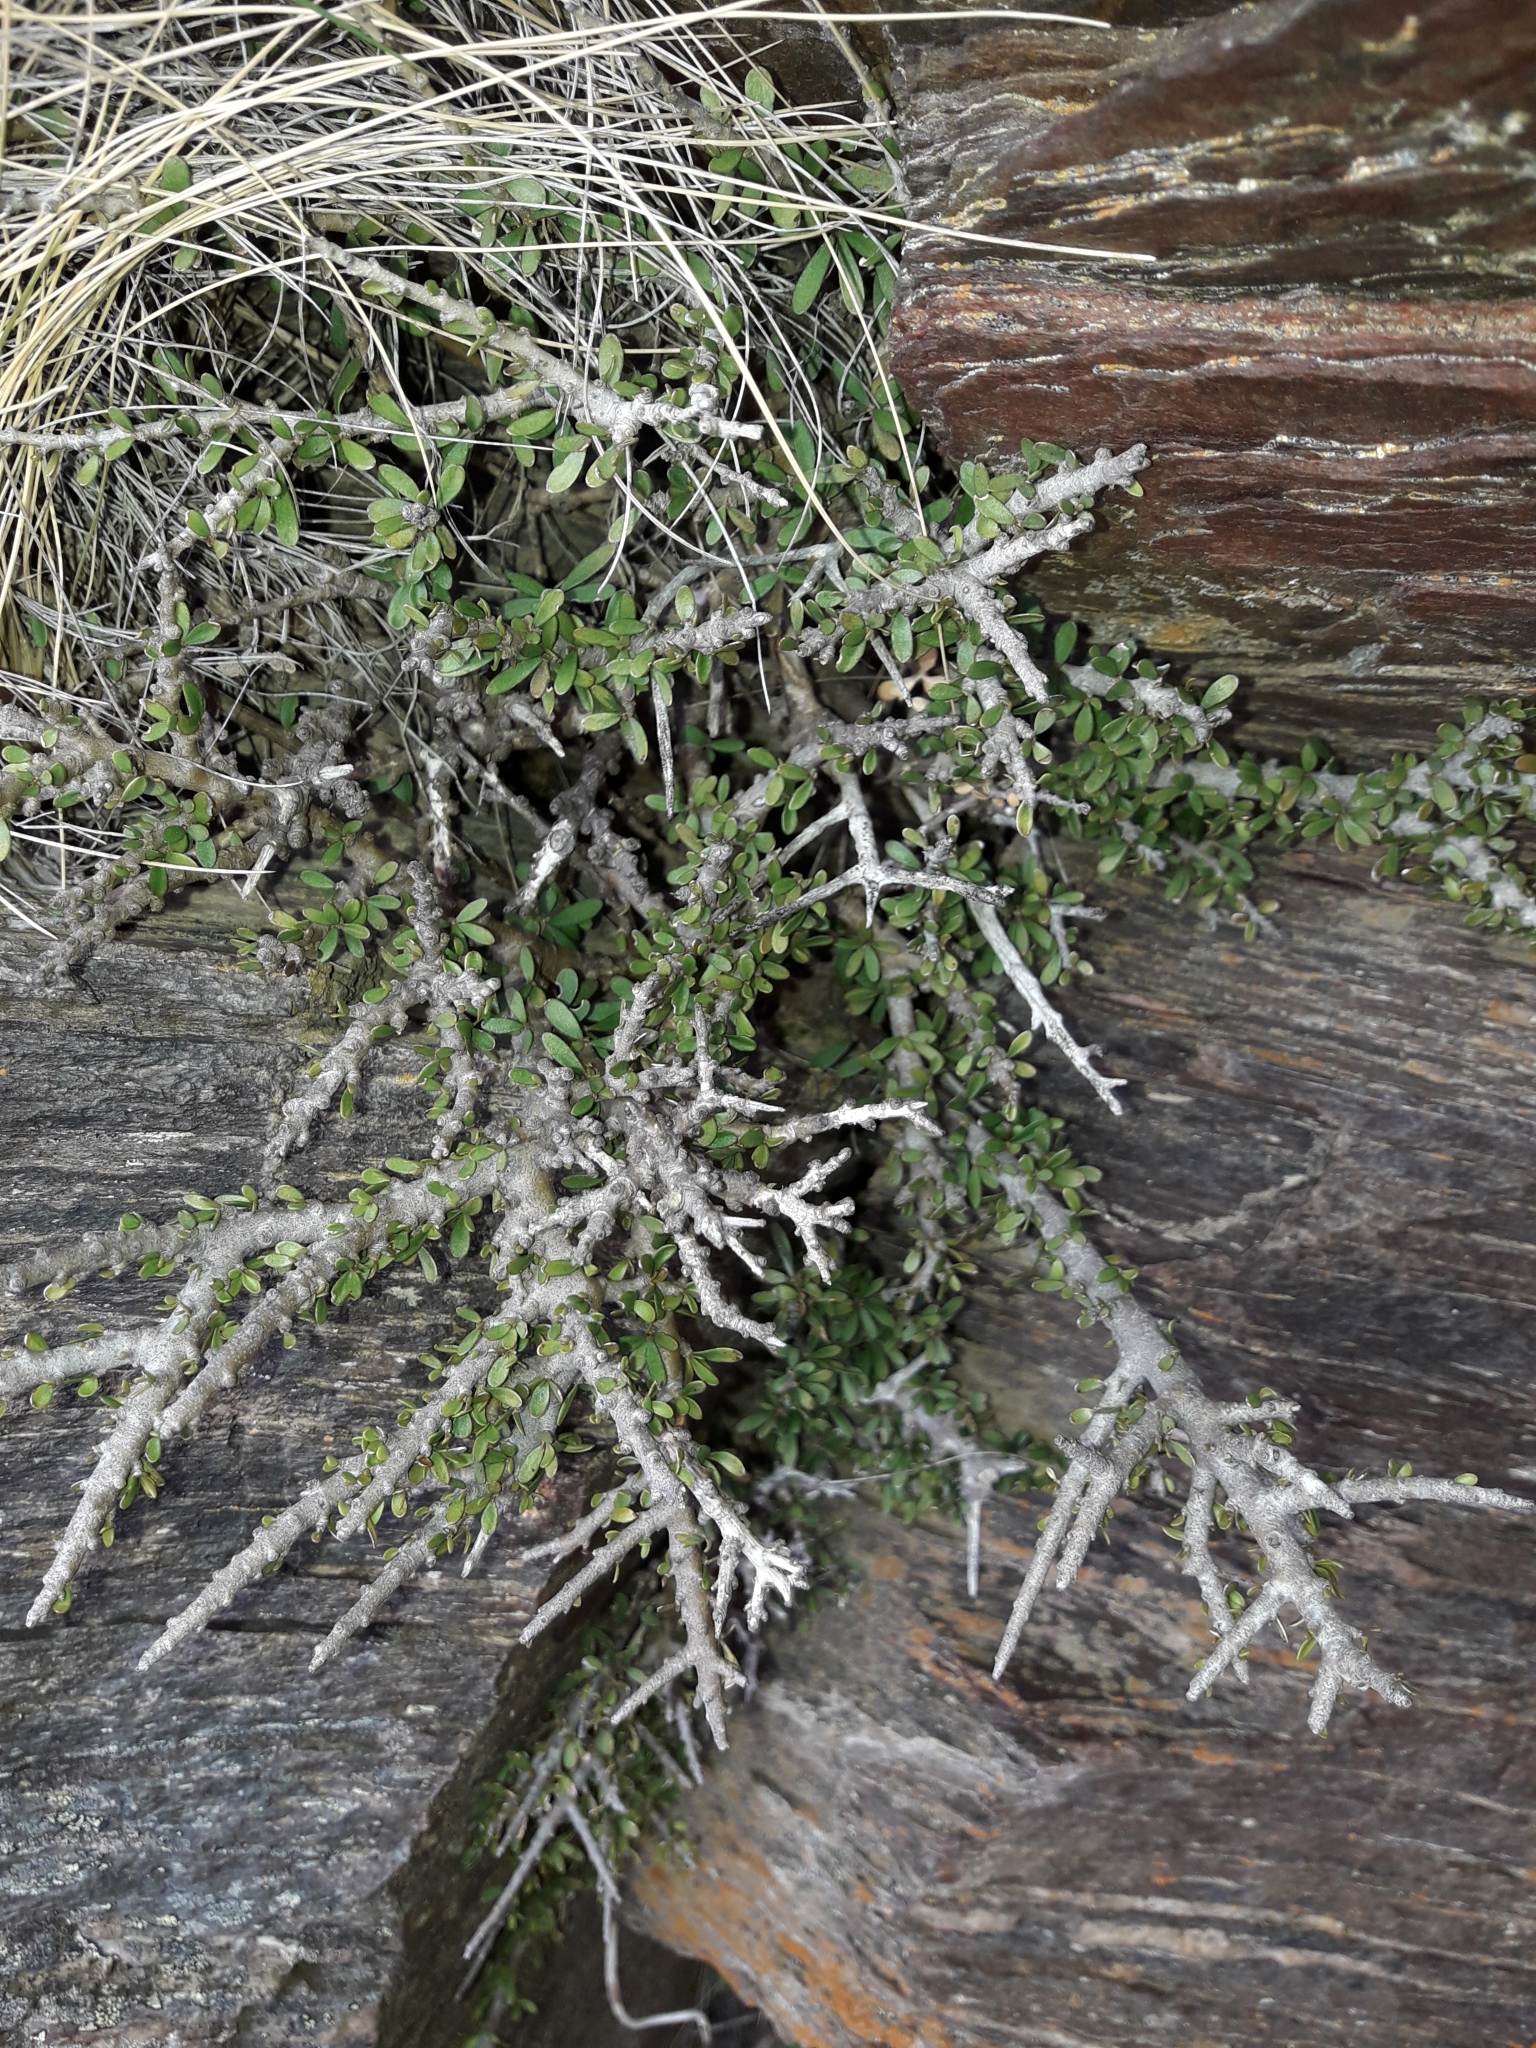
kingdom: Plantae
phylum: Tracheophyta
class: Magnoliopsida
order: Malpighiales
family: Violaceae
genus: Melicytus
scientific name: Melicytus alpinus
